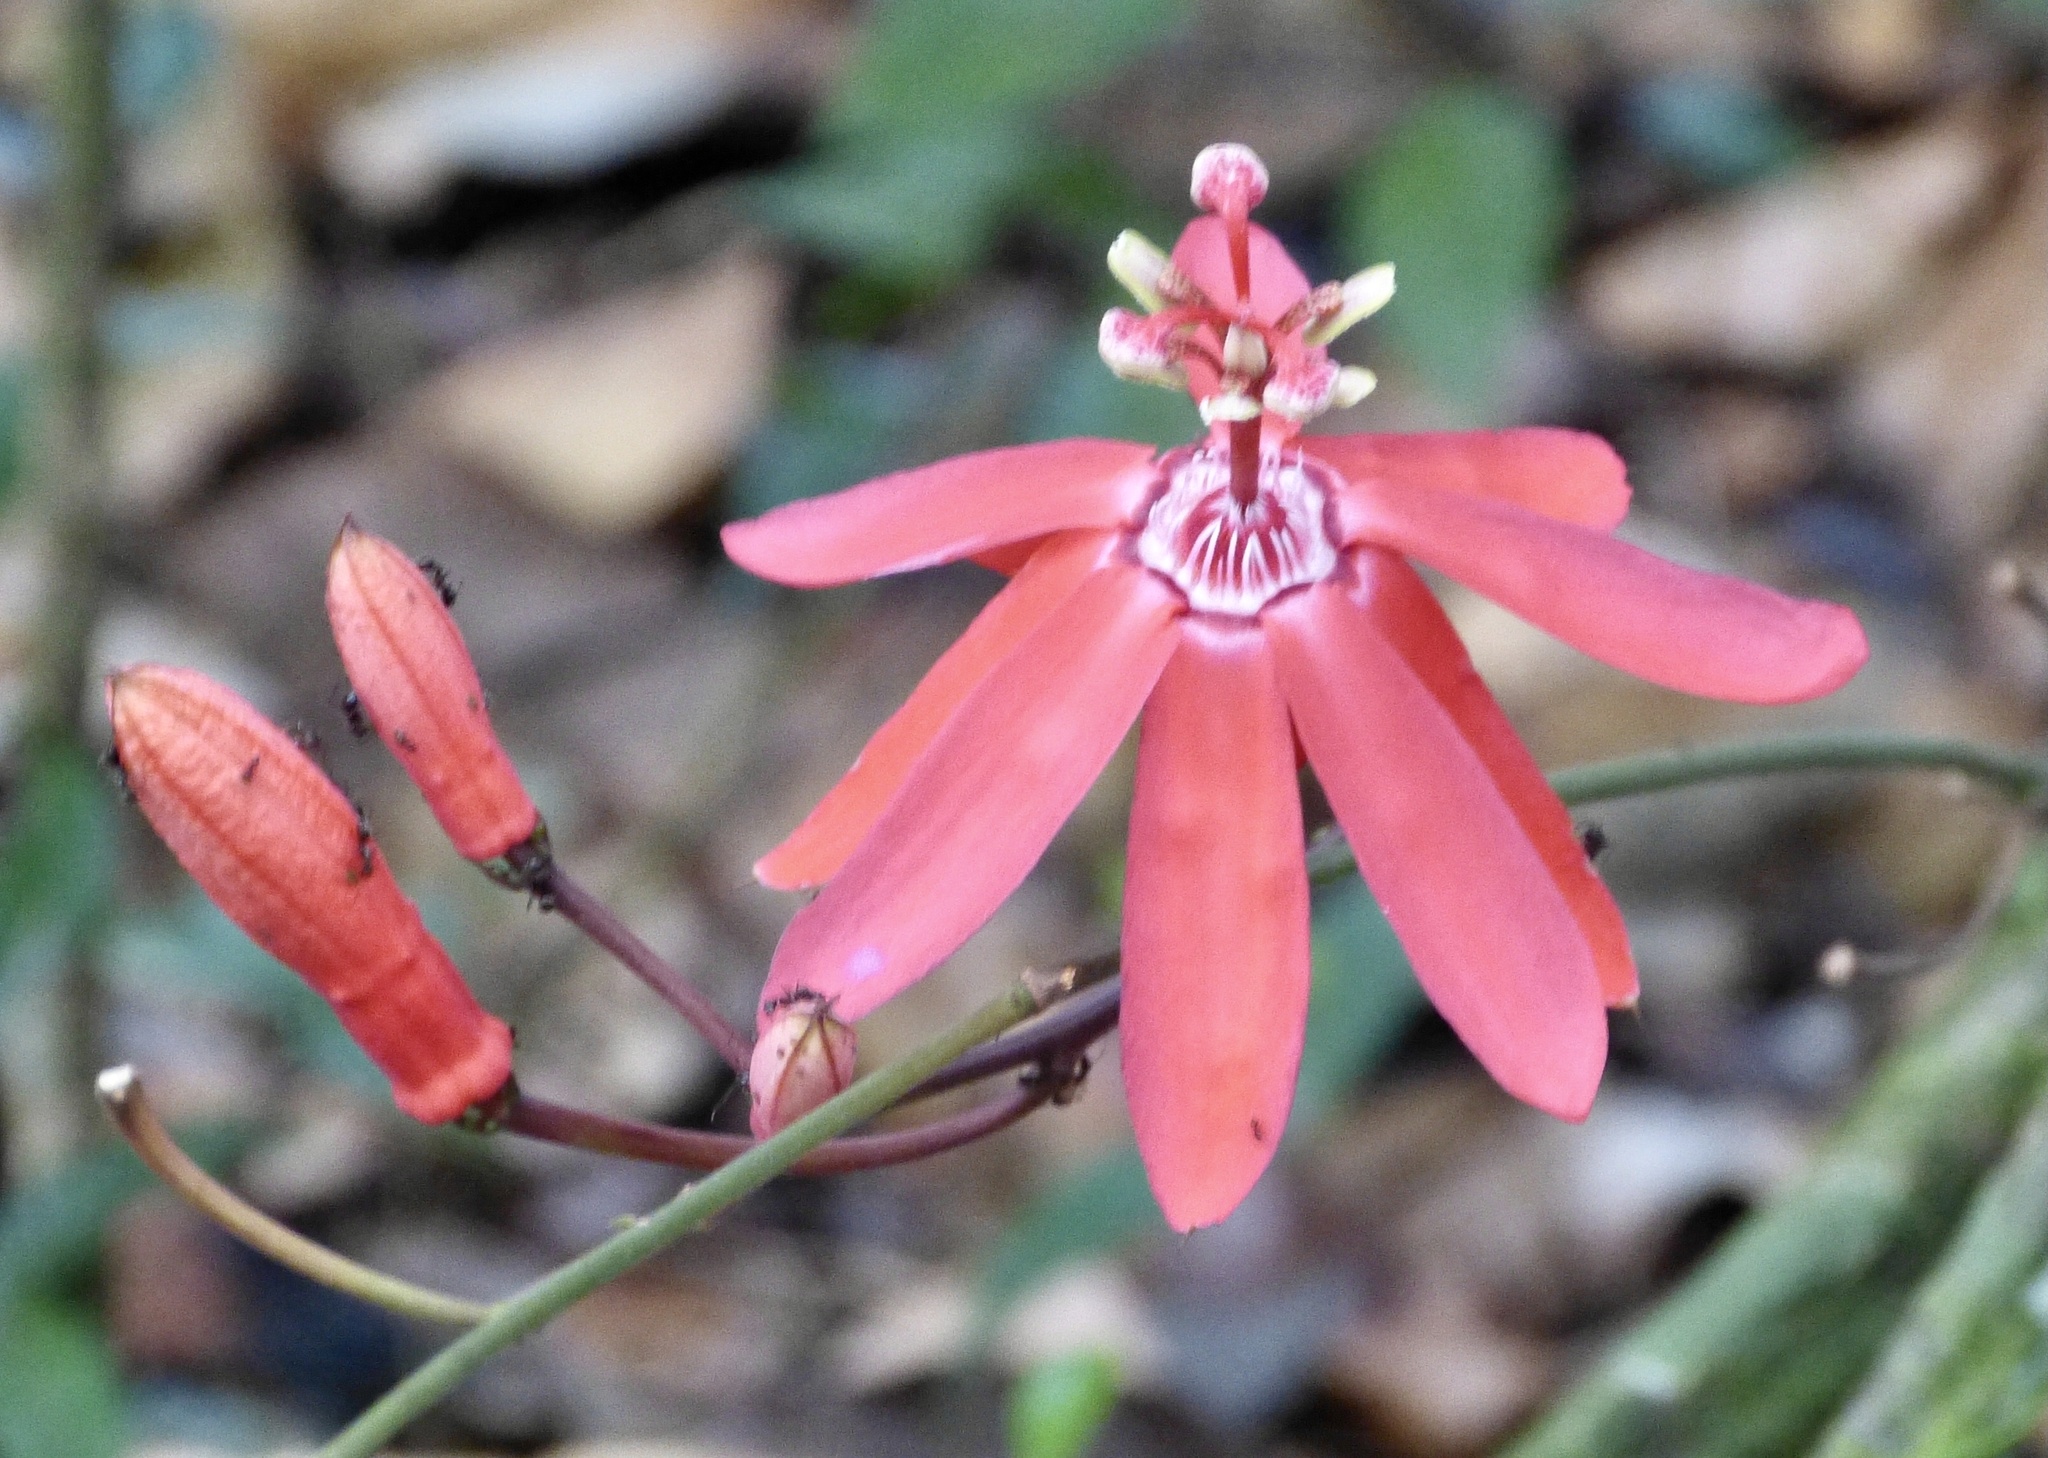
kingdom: Plantae
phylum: Tracheophyta
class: Magnoliopsida
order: Malpighiales
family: Passifloraceae
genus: Passiflora
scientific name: Passiflora glandulosa
